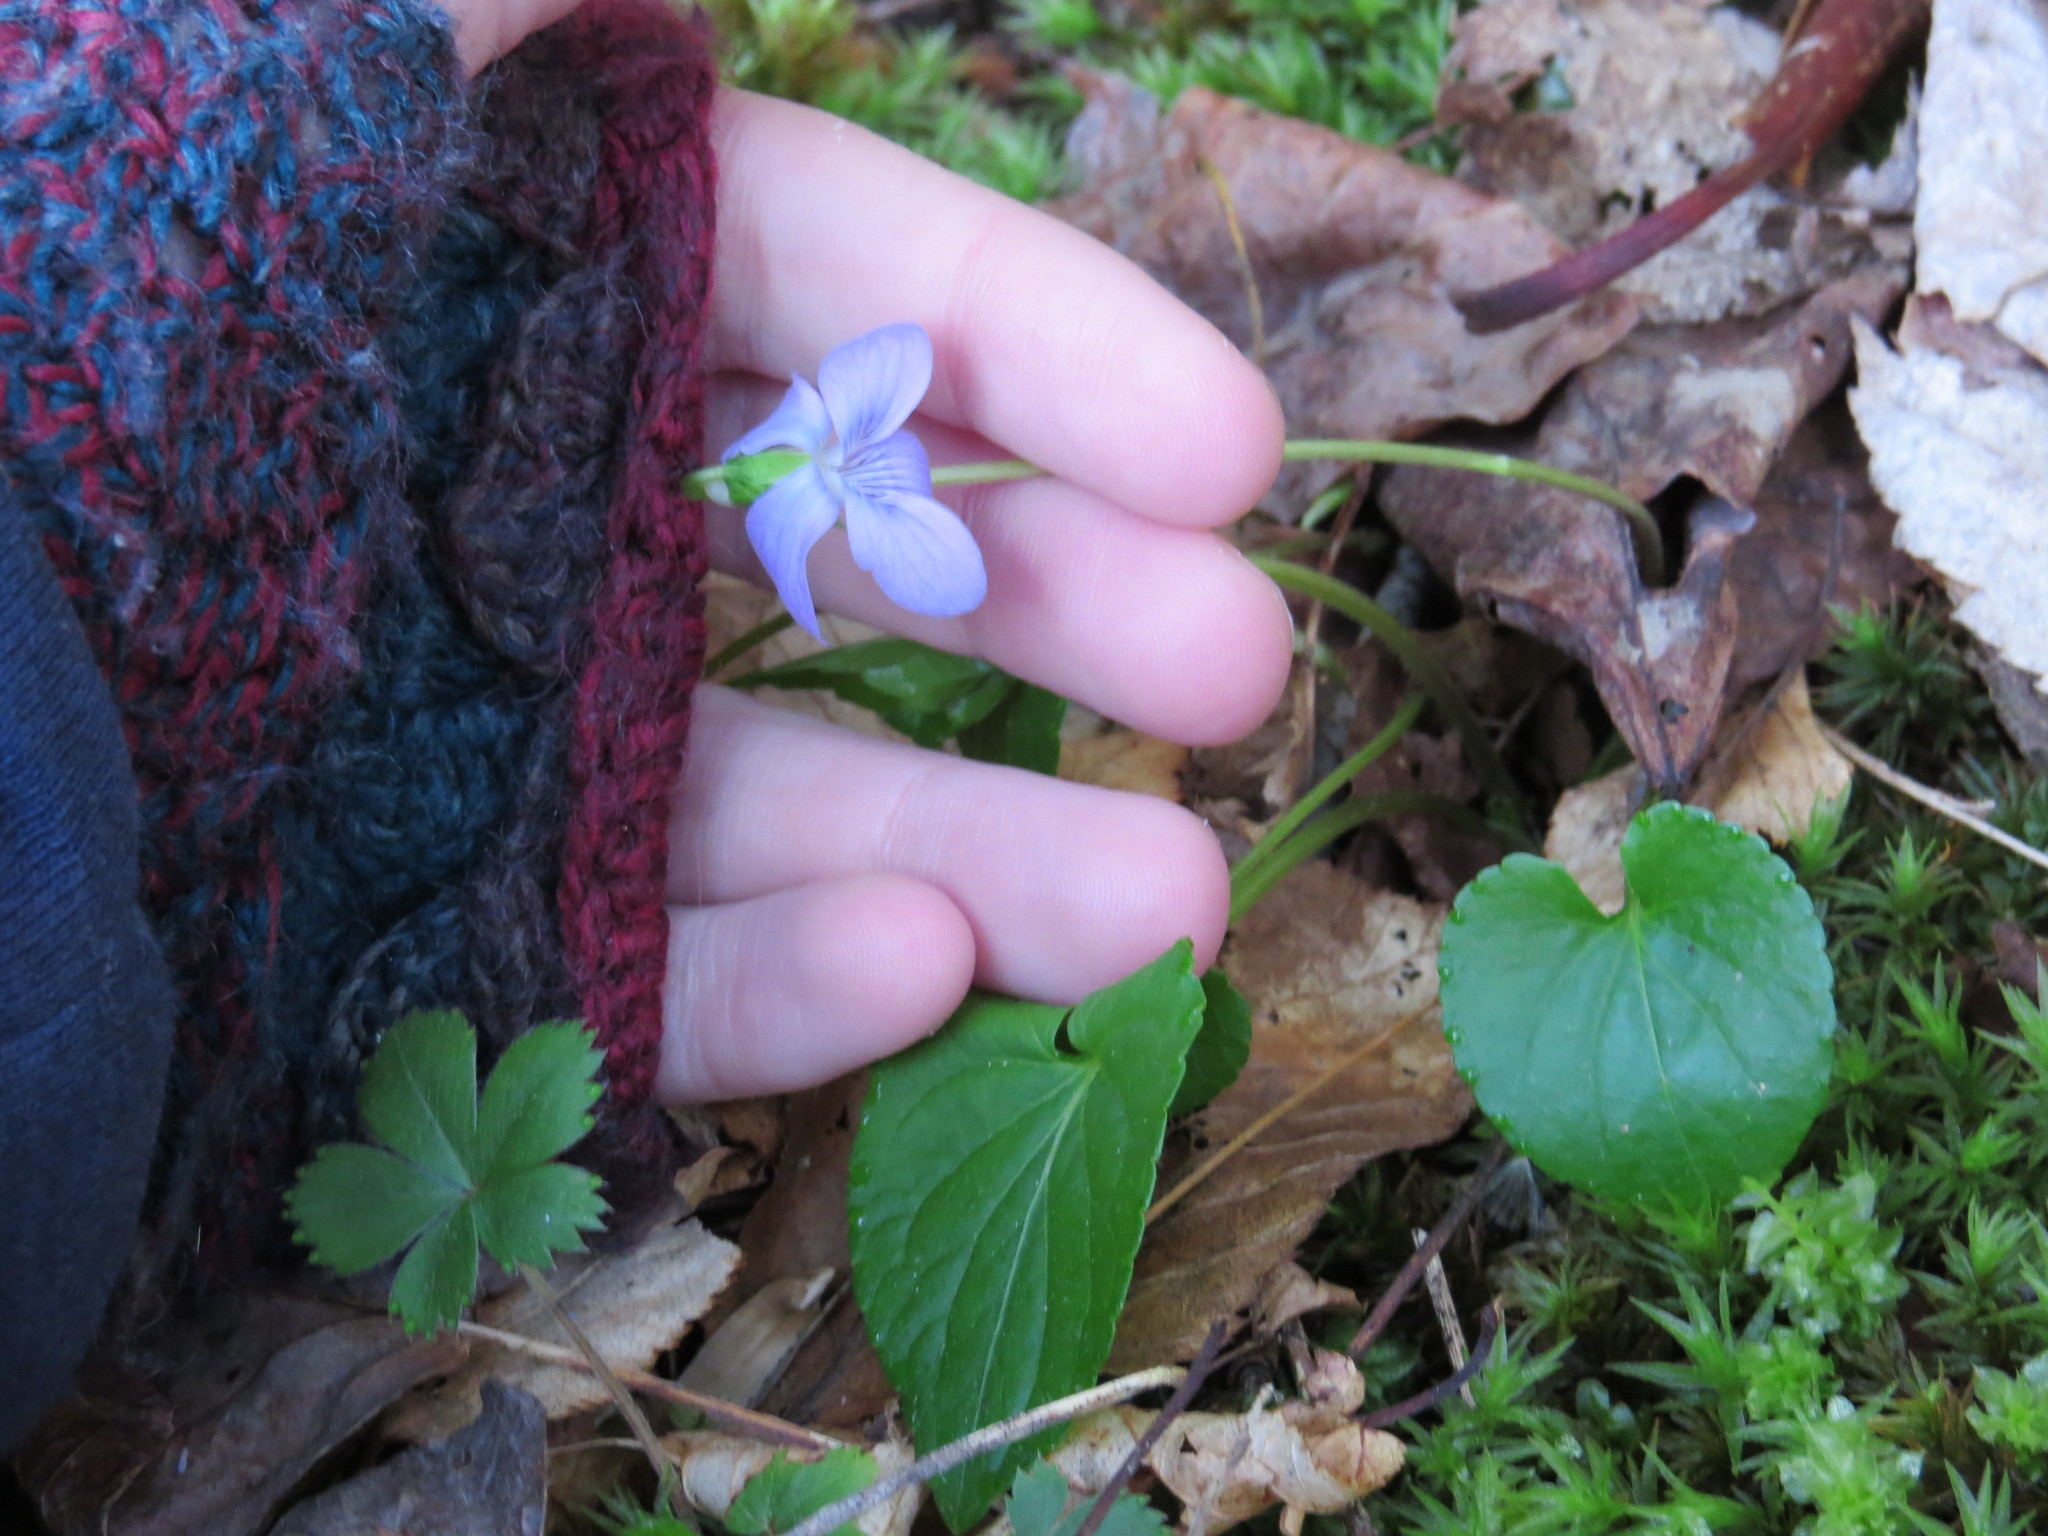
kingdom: Plantae
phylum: Tracheophyta
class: Magnoliopsida
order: Malpighiales
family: Violaceae
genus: Viola
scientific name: Viola sororia
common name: Dooryard violet
